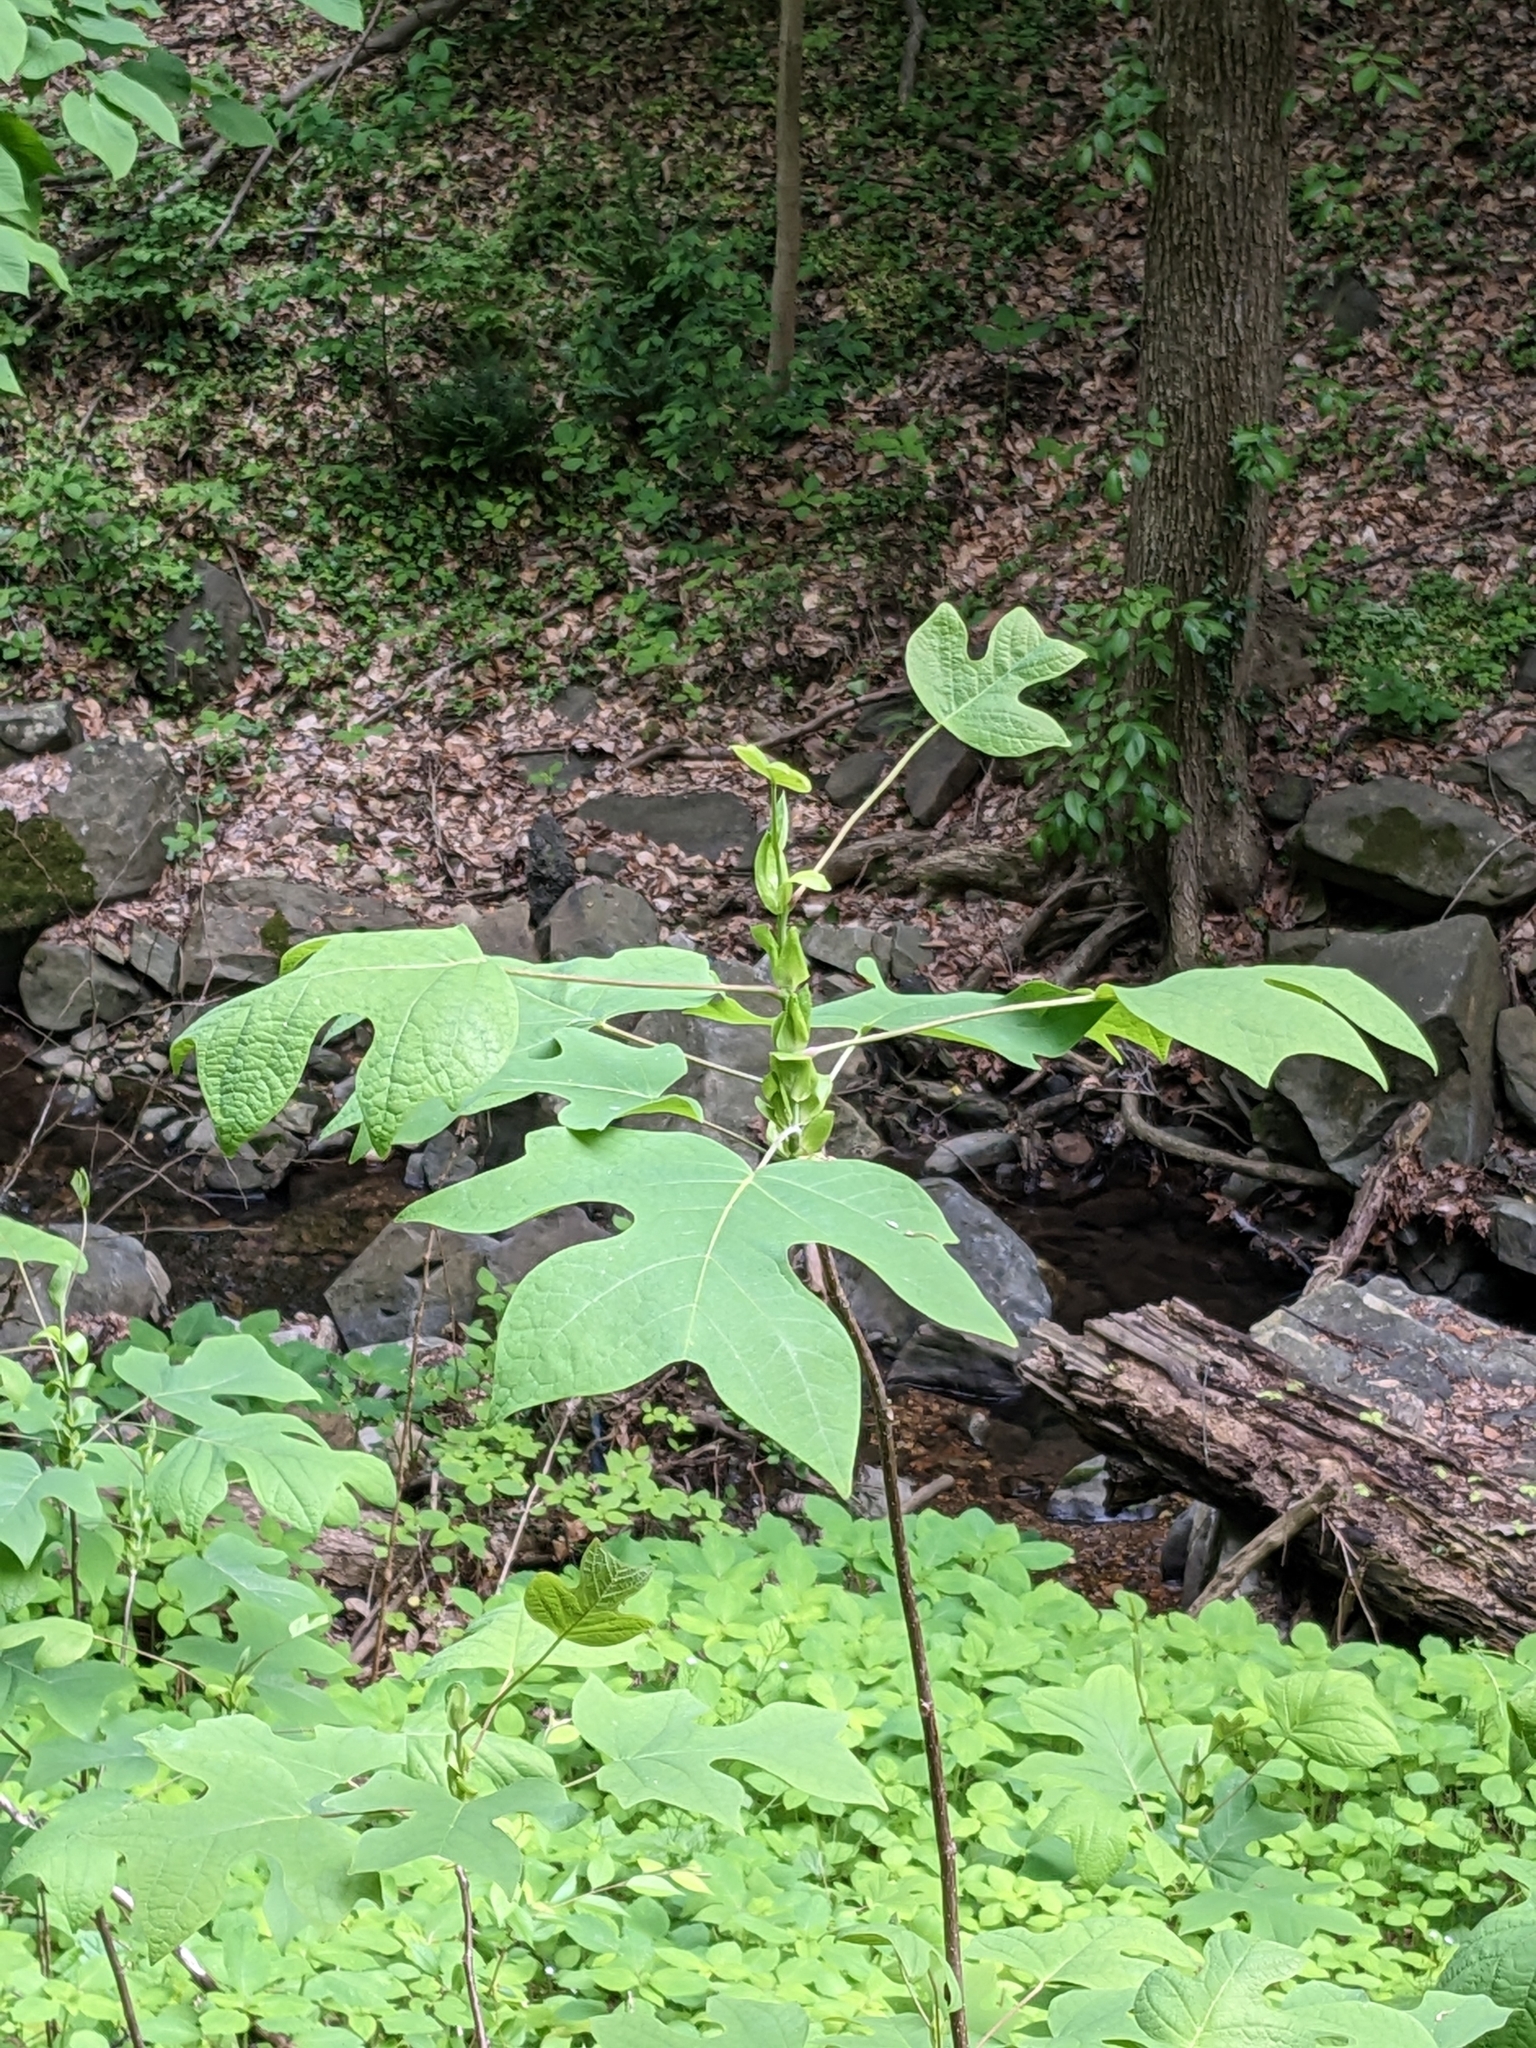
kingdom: Plantae
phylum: Tracheophyta
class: Magnoliopsida
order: Magnoliales
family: Magnoliaceae
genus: Liriodendron
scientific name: Liriodendron tulipifera
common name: Tulip tree
